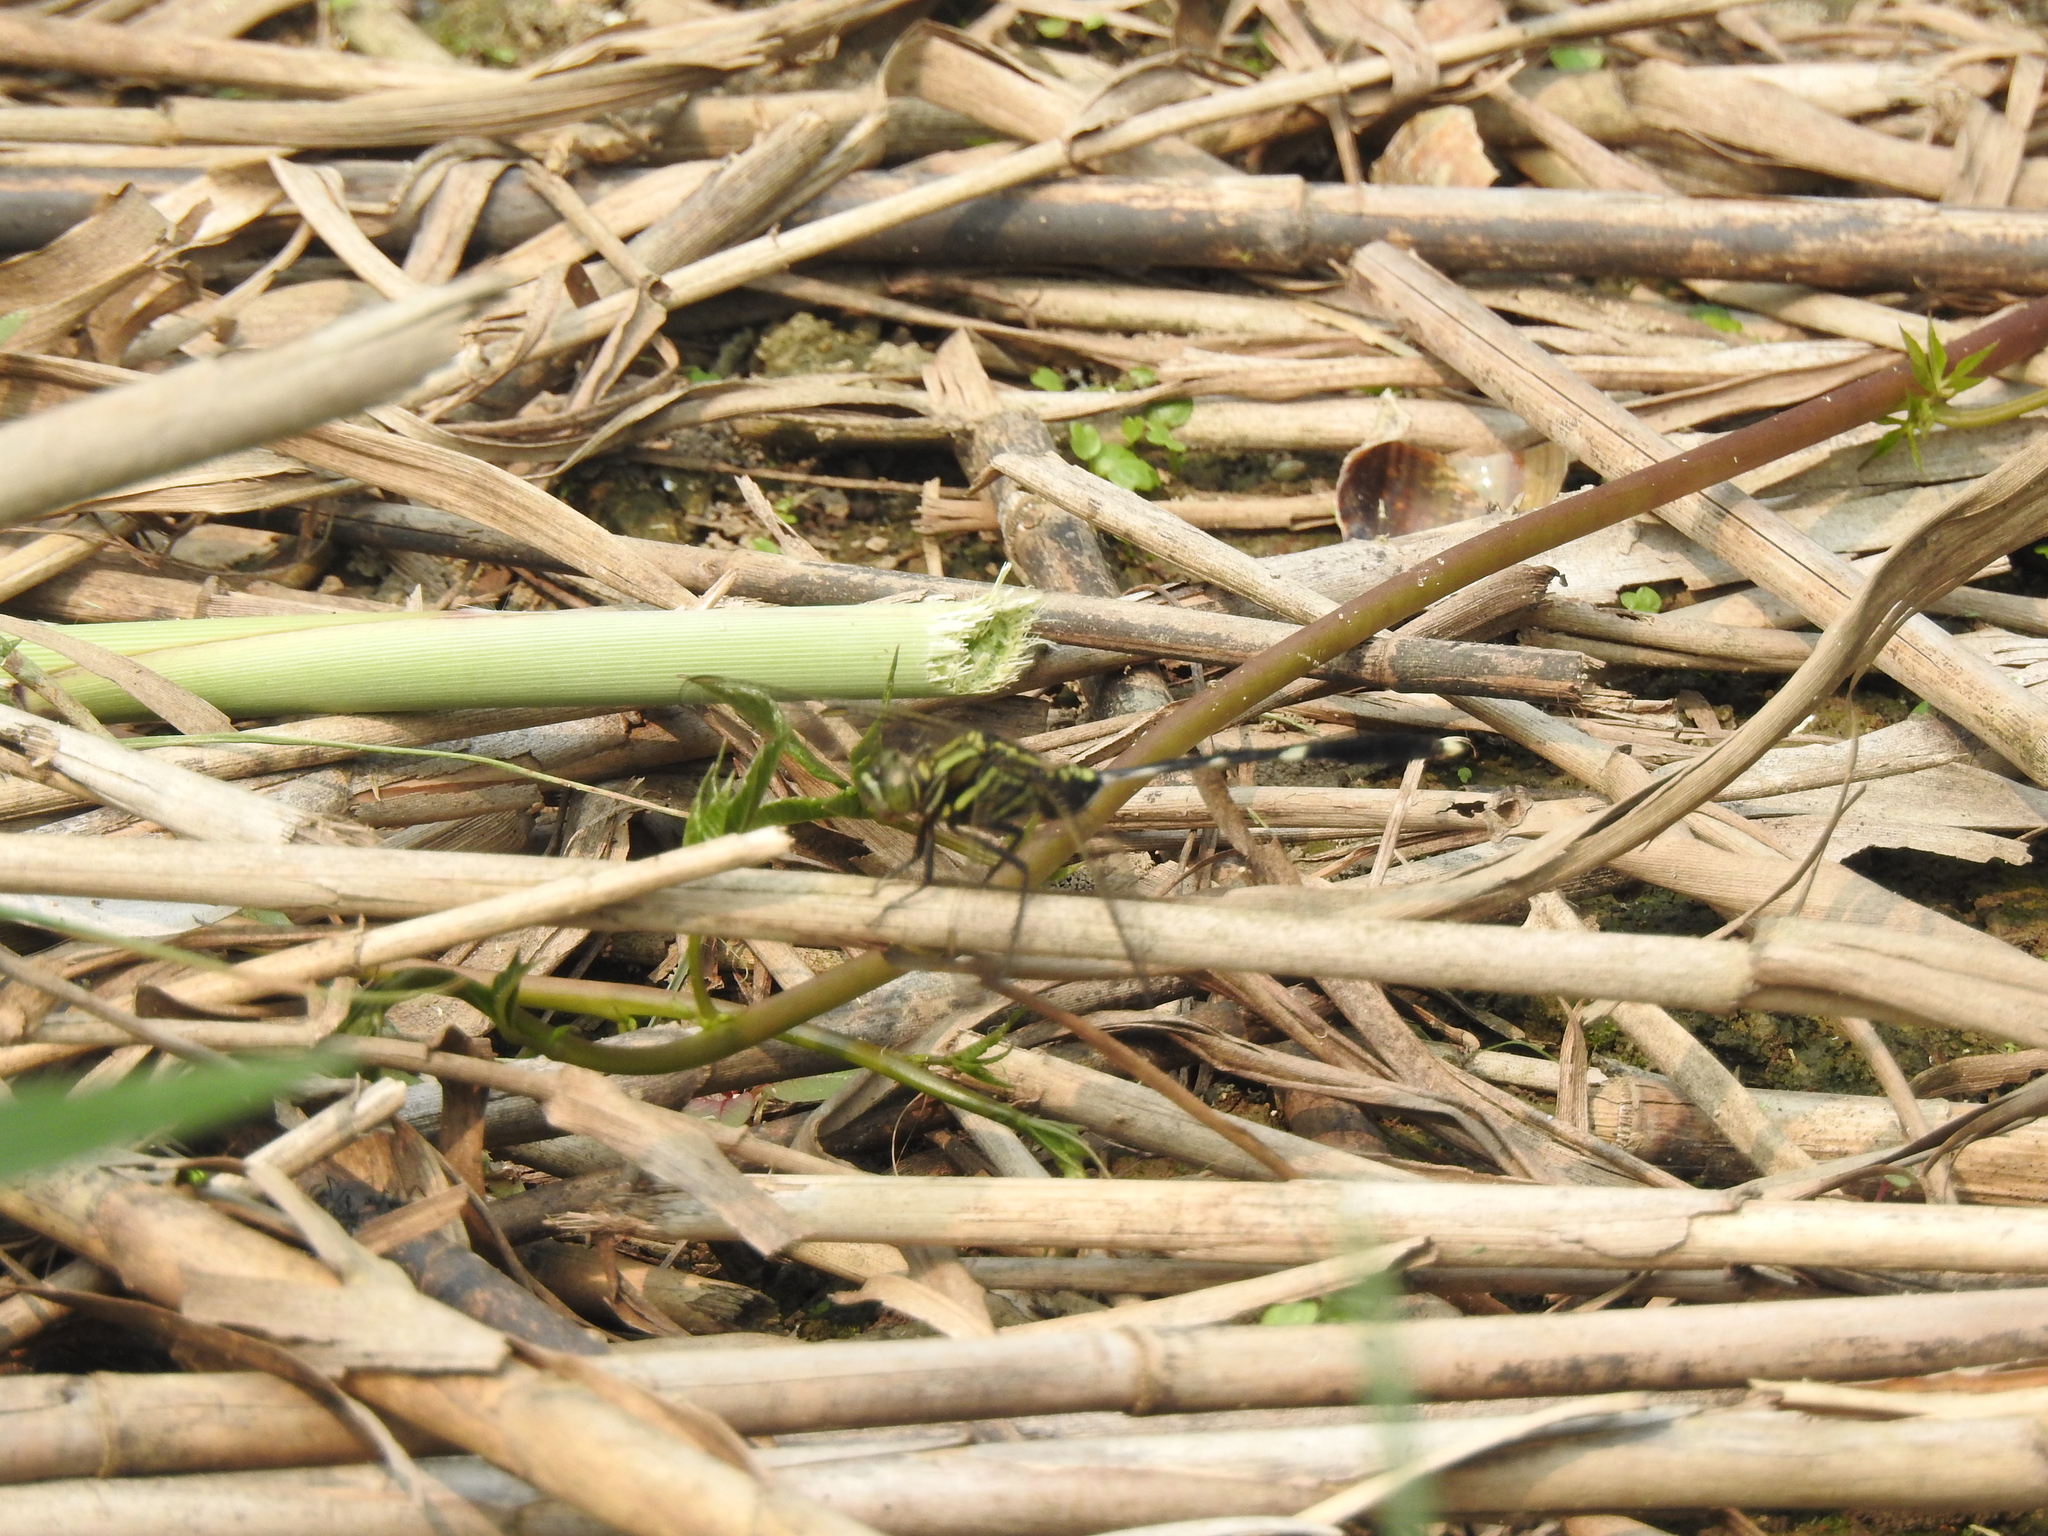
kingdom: Animalia
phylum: Arthropoda
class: Insecta
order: Odonata
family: Libellulidae
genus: Orthetrum
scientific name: Orthetrum sabina
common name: Slender skimmer
